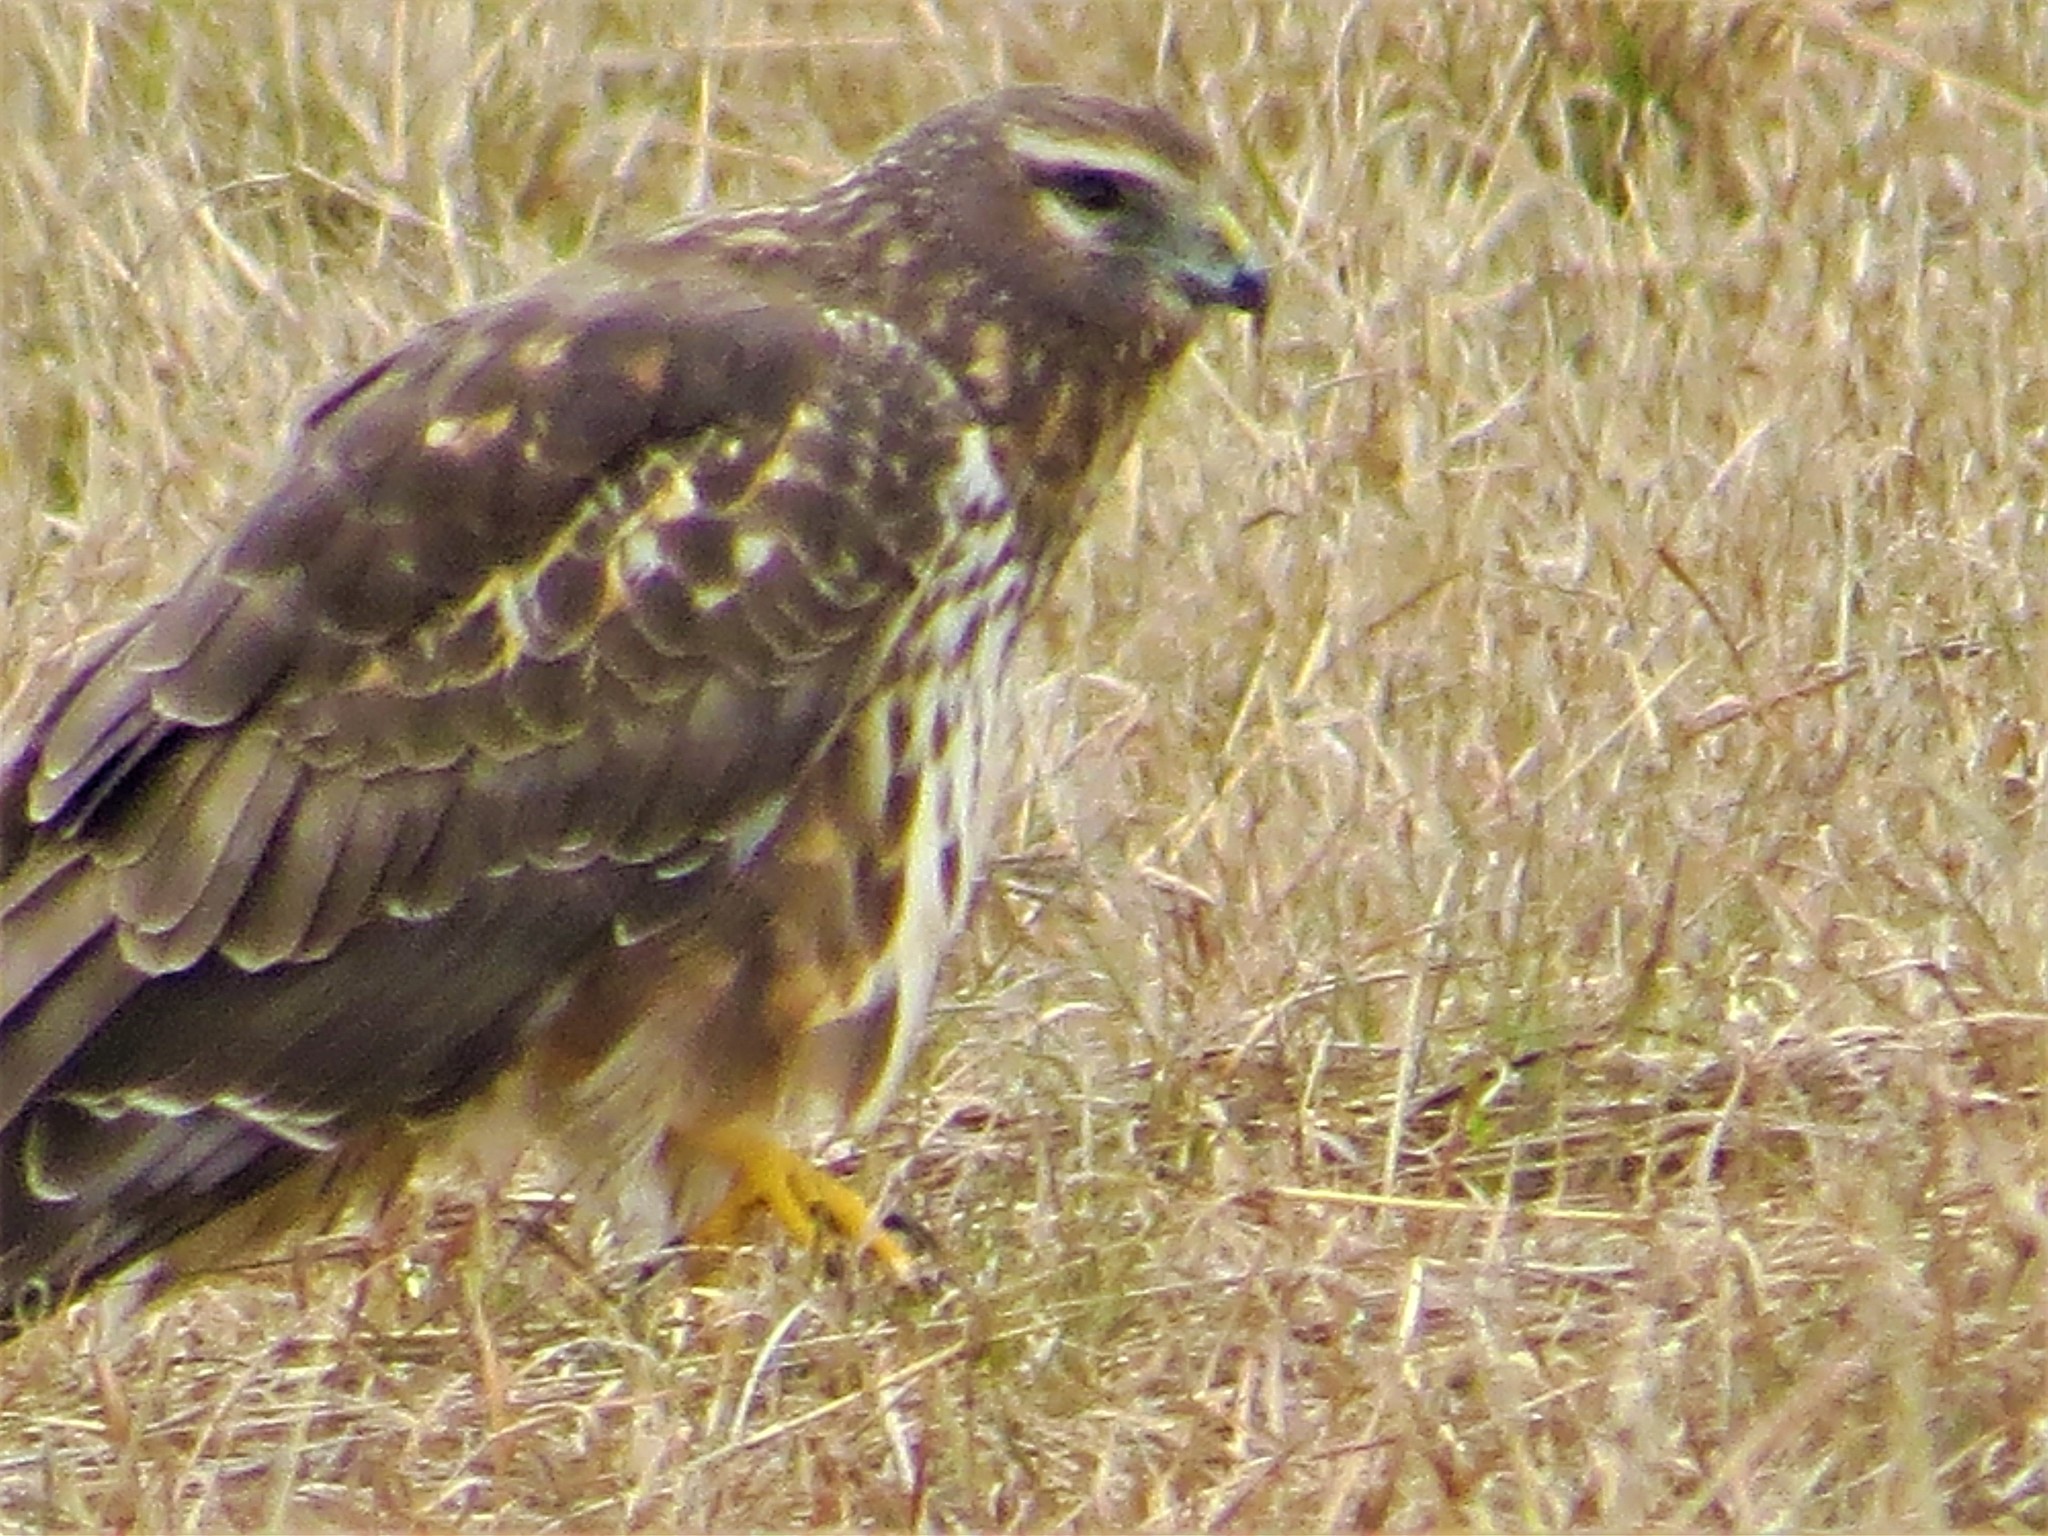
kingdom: Animalia
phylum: Chordata
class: Aves
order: Accipitriformes
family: Accipitridae
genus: Circus
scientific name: Circus cyaneus
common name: Hen harrier
